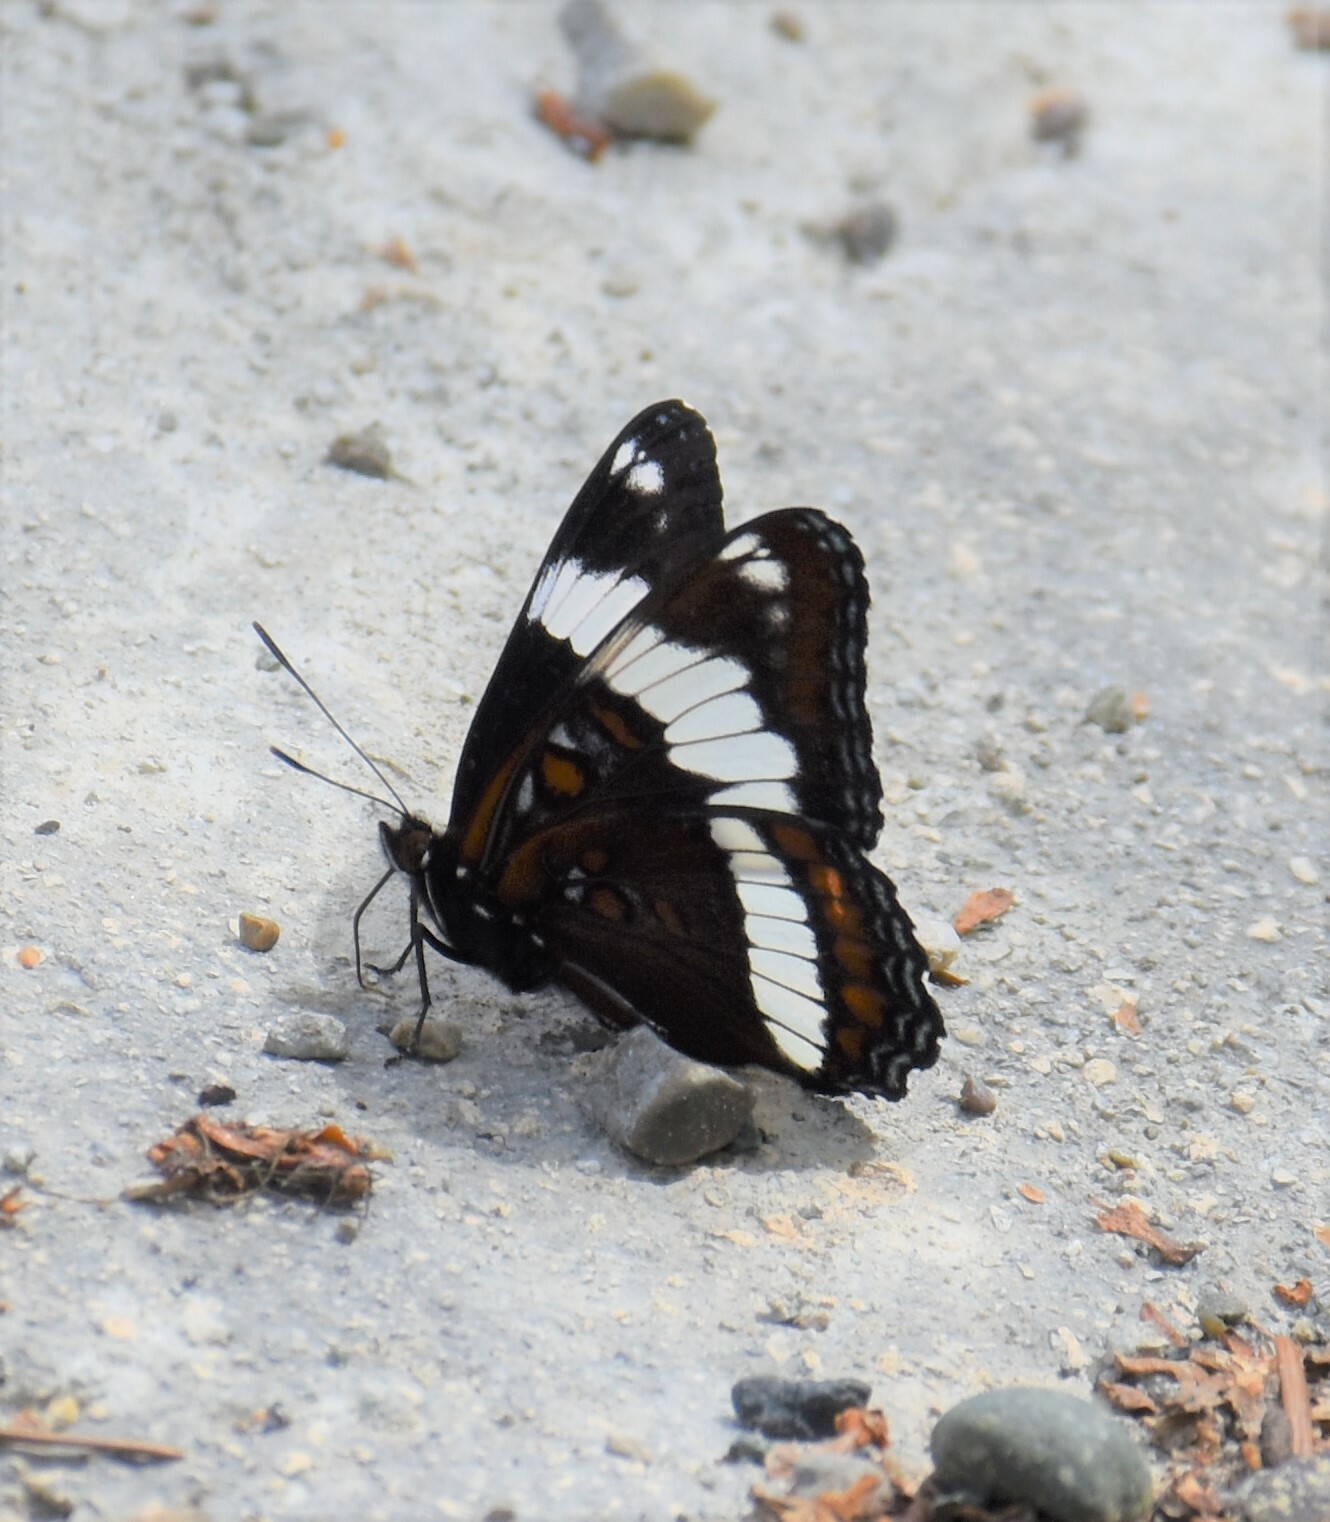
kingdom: Animalia
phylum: Arthropoda
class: Insecta
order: Lepidoptera
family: Nymphalidae
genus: Limenitis
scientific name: Limenitis arthemis
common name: Red-spotted admiral
